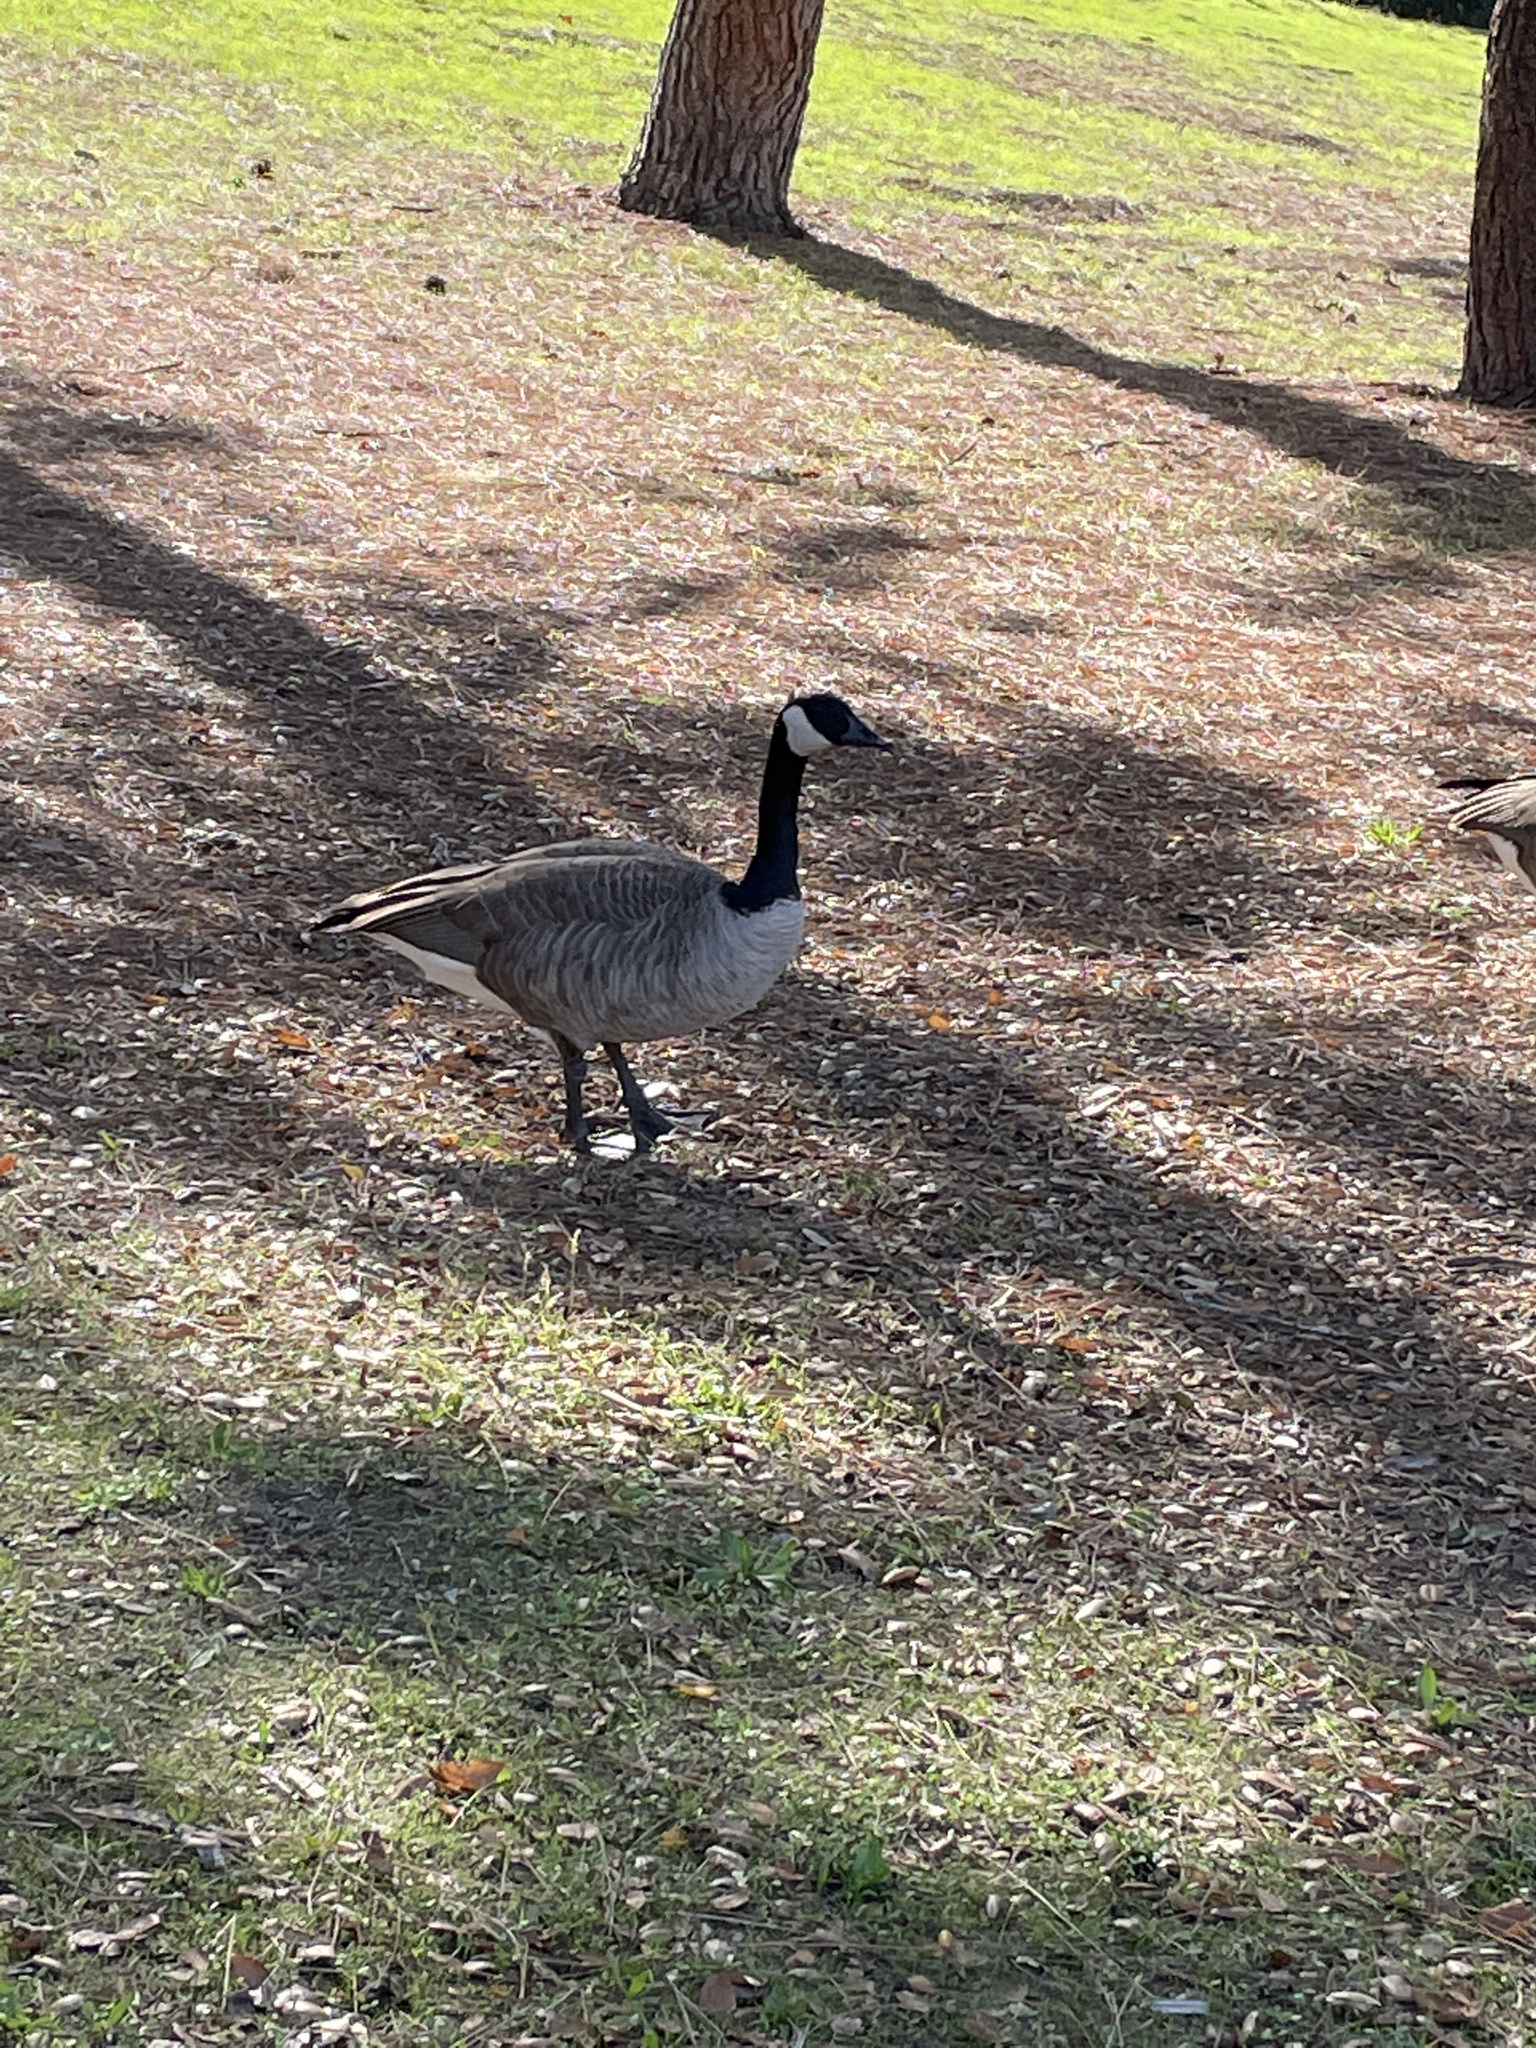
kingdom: Animalia
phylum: Chordata
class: Aves
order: Anseriformes
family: Anatidae
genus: Branta
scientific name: Branta canadensis
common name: Canada goose
